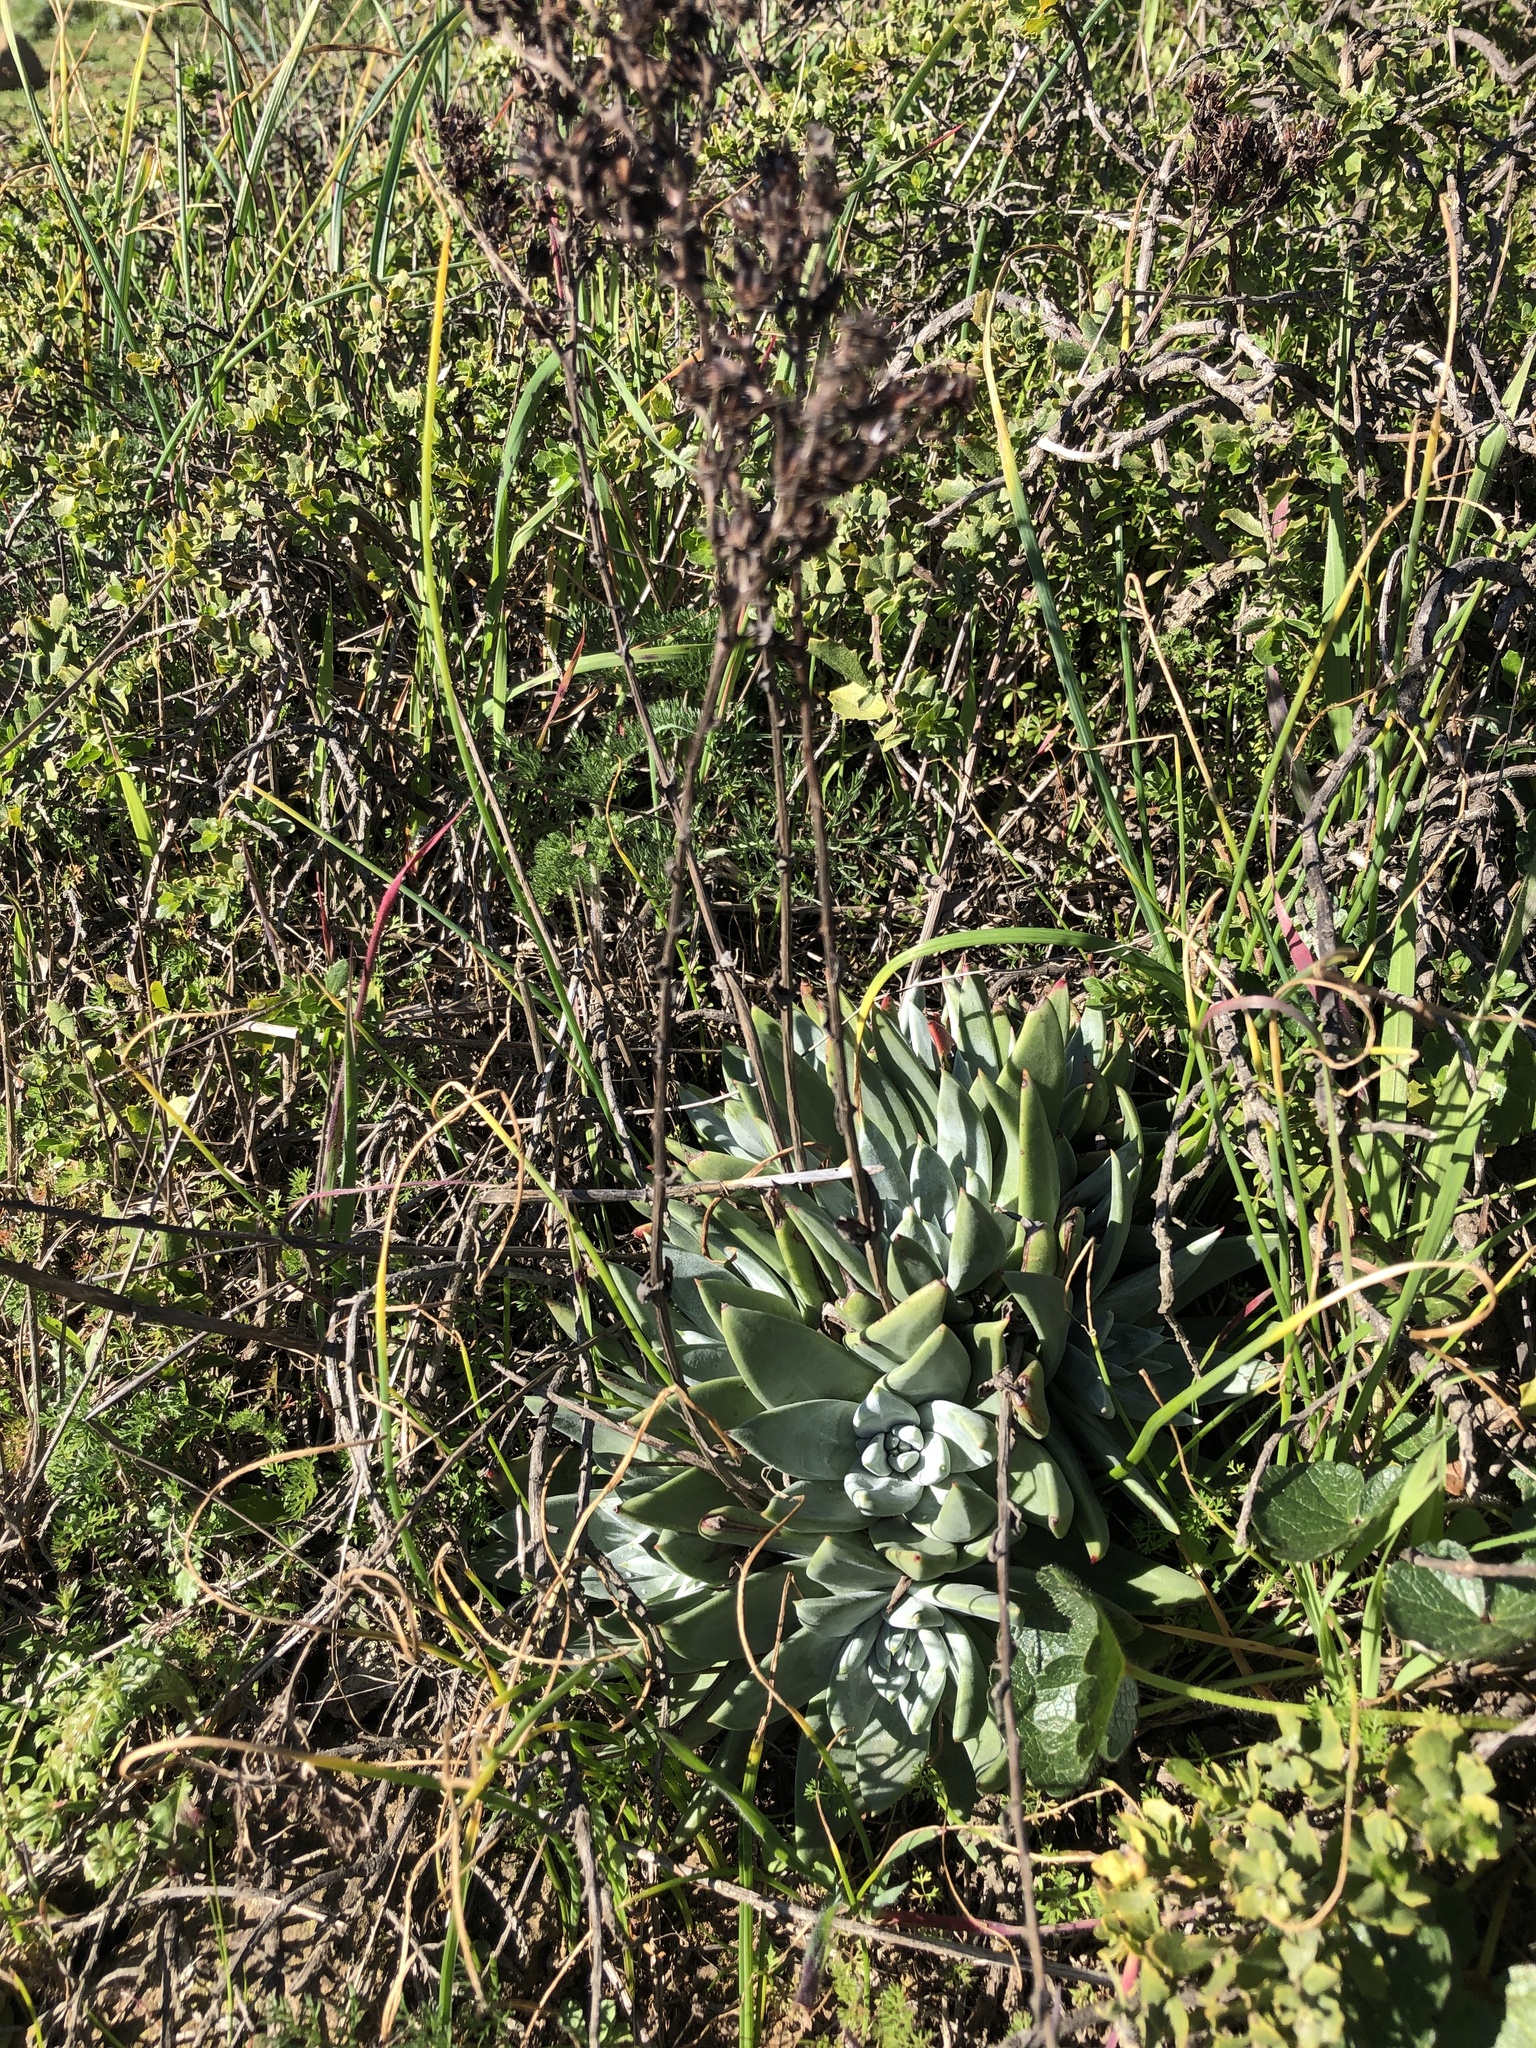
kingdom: Plantae
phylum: Tracheophyta
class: Magnoliopsida
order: Saxifragales
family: Crassulaceae
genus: Dudleya
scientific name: Dudleya farinosa
